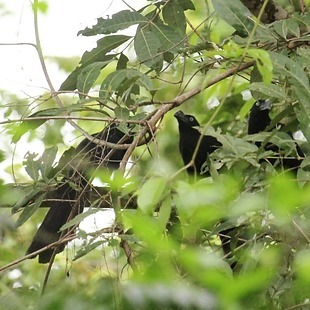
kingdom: Animalia
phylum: Chordata
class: Aves
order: Cuculiformes
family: Cuculidae
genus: Crotophaga
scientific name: Crotophaga major
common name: Greater ani
